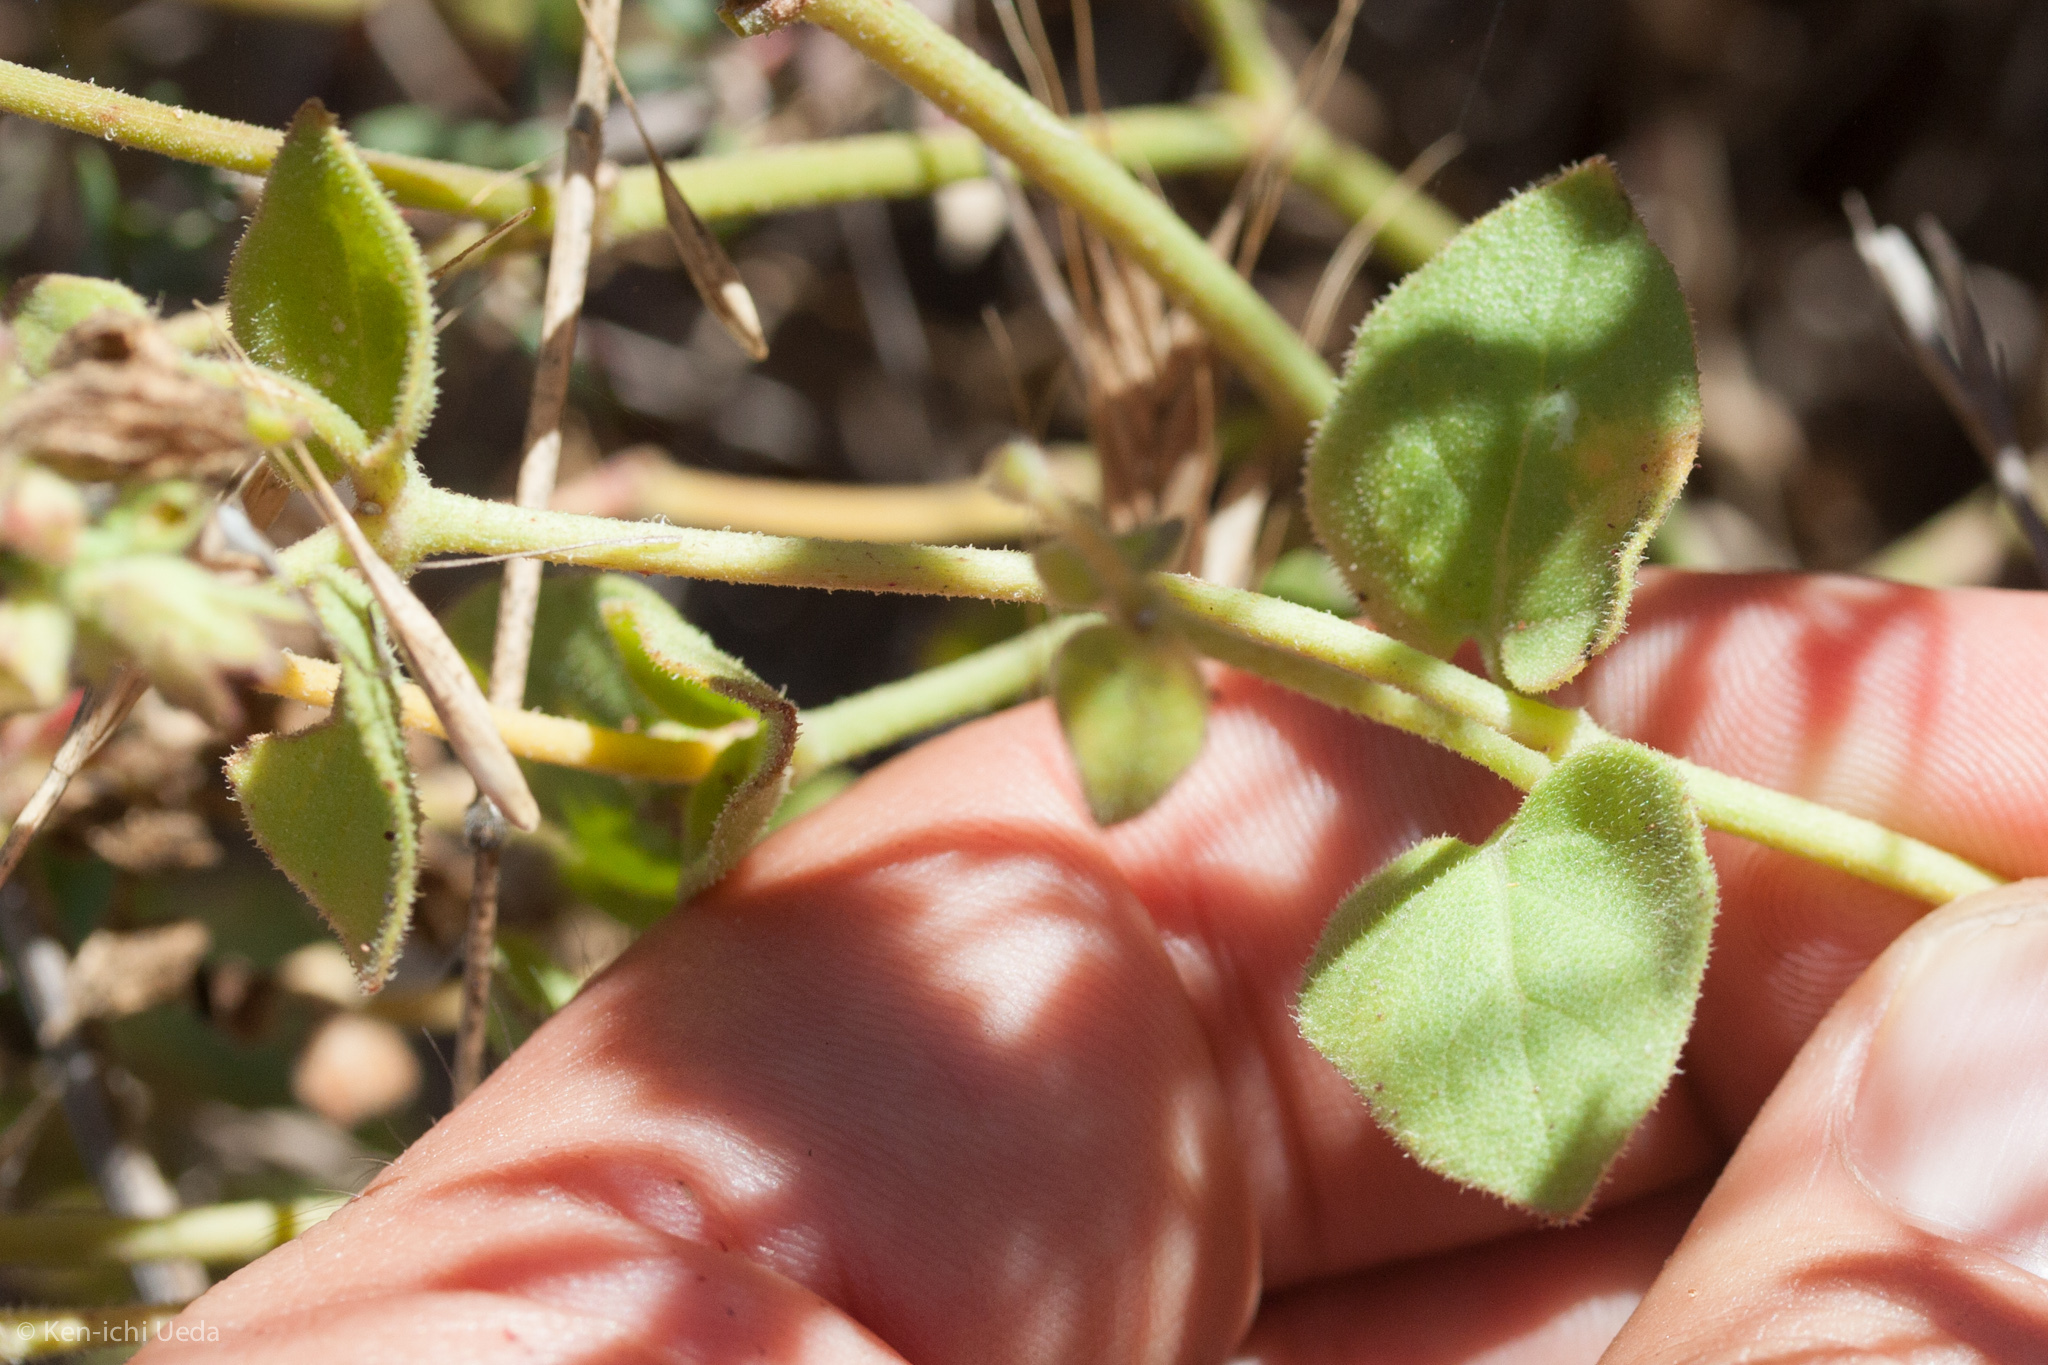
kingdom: Plantae
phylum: Tracheophyta
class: Magnoliopsida
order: Caryophyllales
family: Nyctaginaceae
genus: Mirabilis
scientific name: Mirabilis laevis
